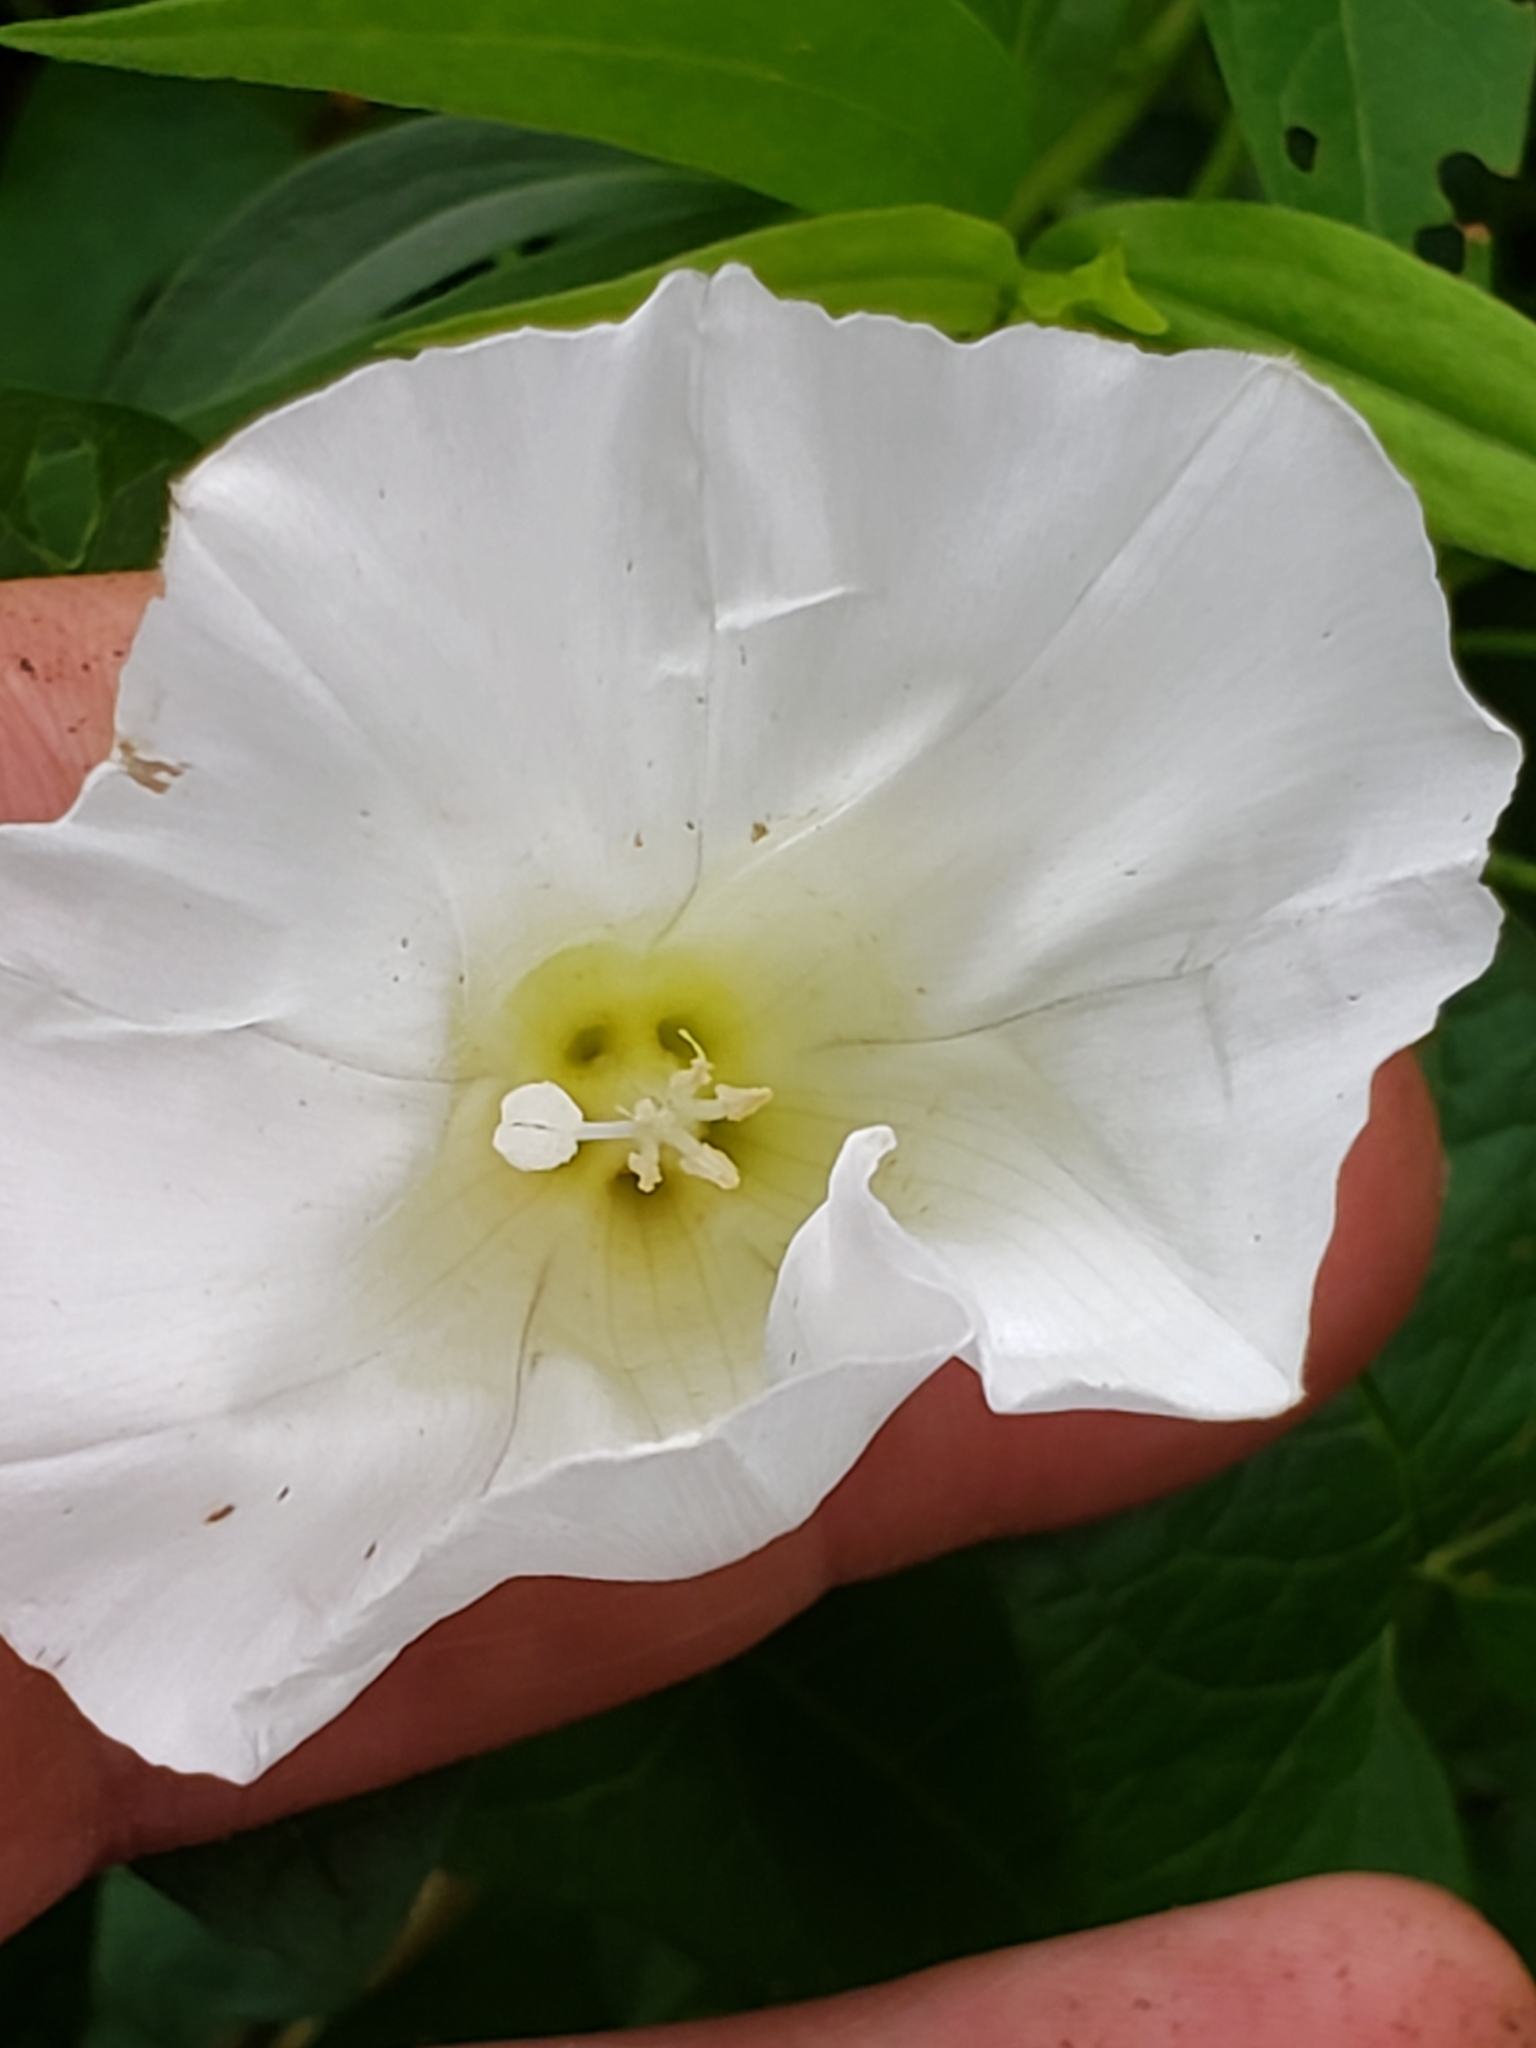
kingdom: Plantae
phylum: Tracheophyta
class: Magnoliopsida
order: Solanales
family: Convolvulaceae
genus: Calystegia
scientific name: Calystegia sepium
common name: Hedge bindweed
